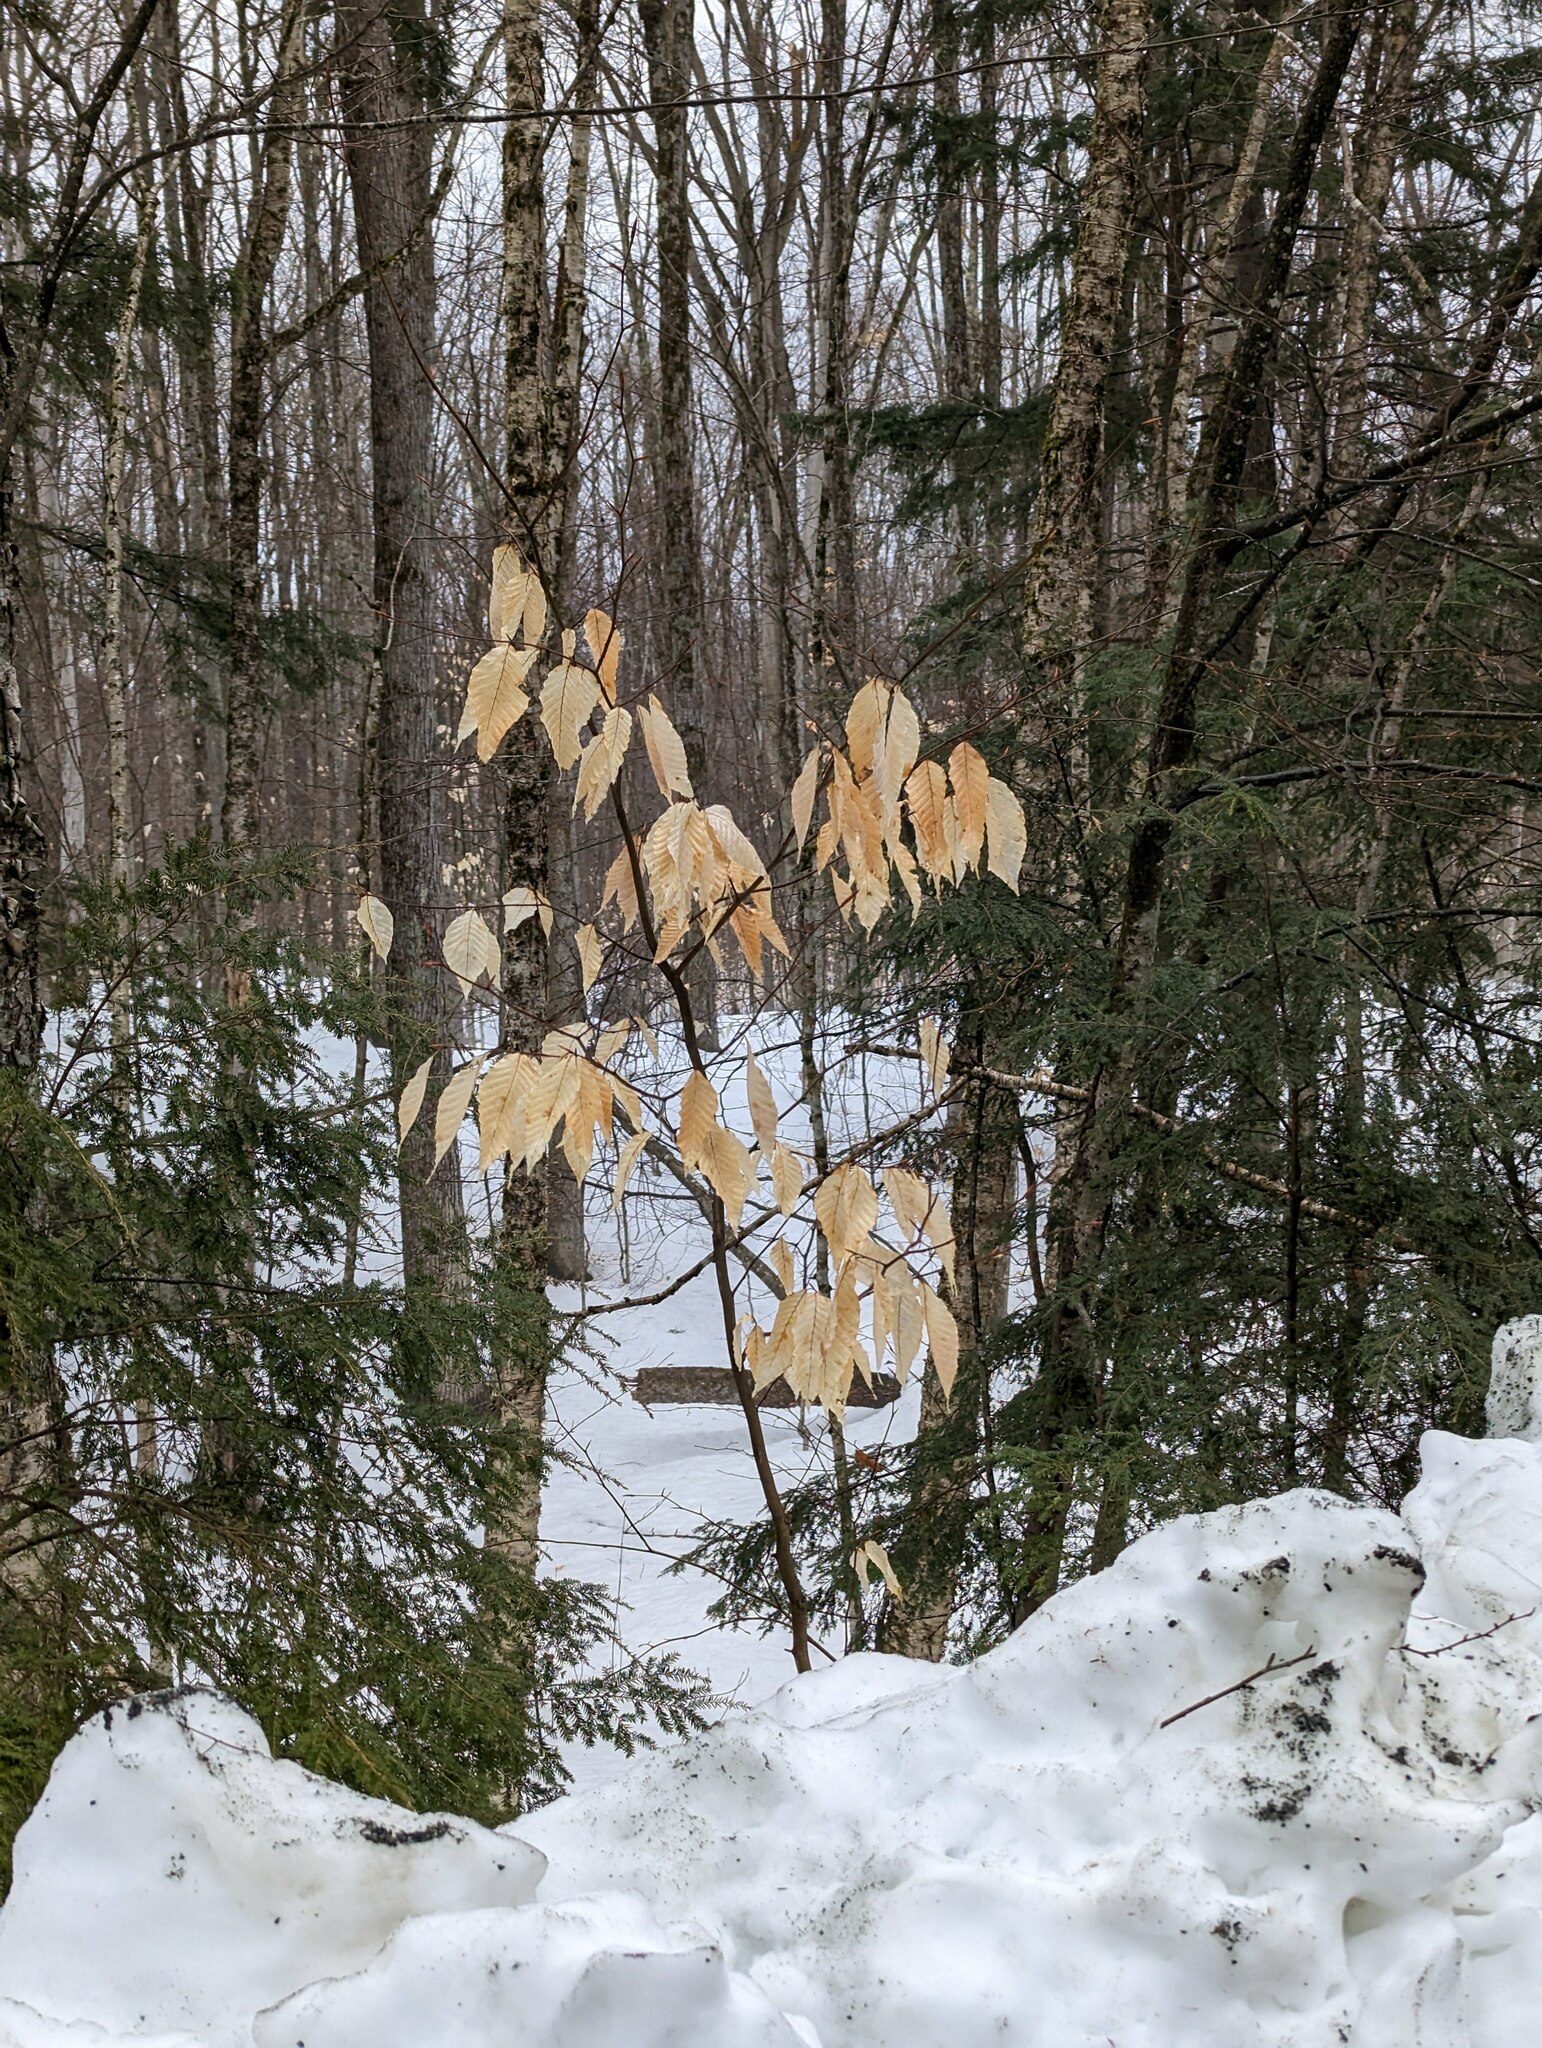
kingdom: Plantae
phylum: Tracheophyta
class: Magnoliopsida
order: Fagales
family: Fagaceae
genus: Fagus
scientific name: Fagus grandifolia
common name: American beech
